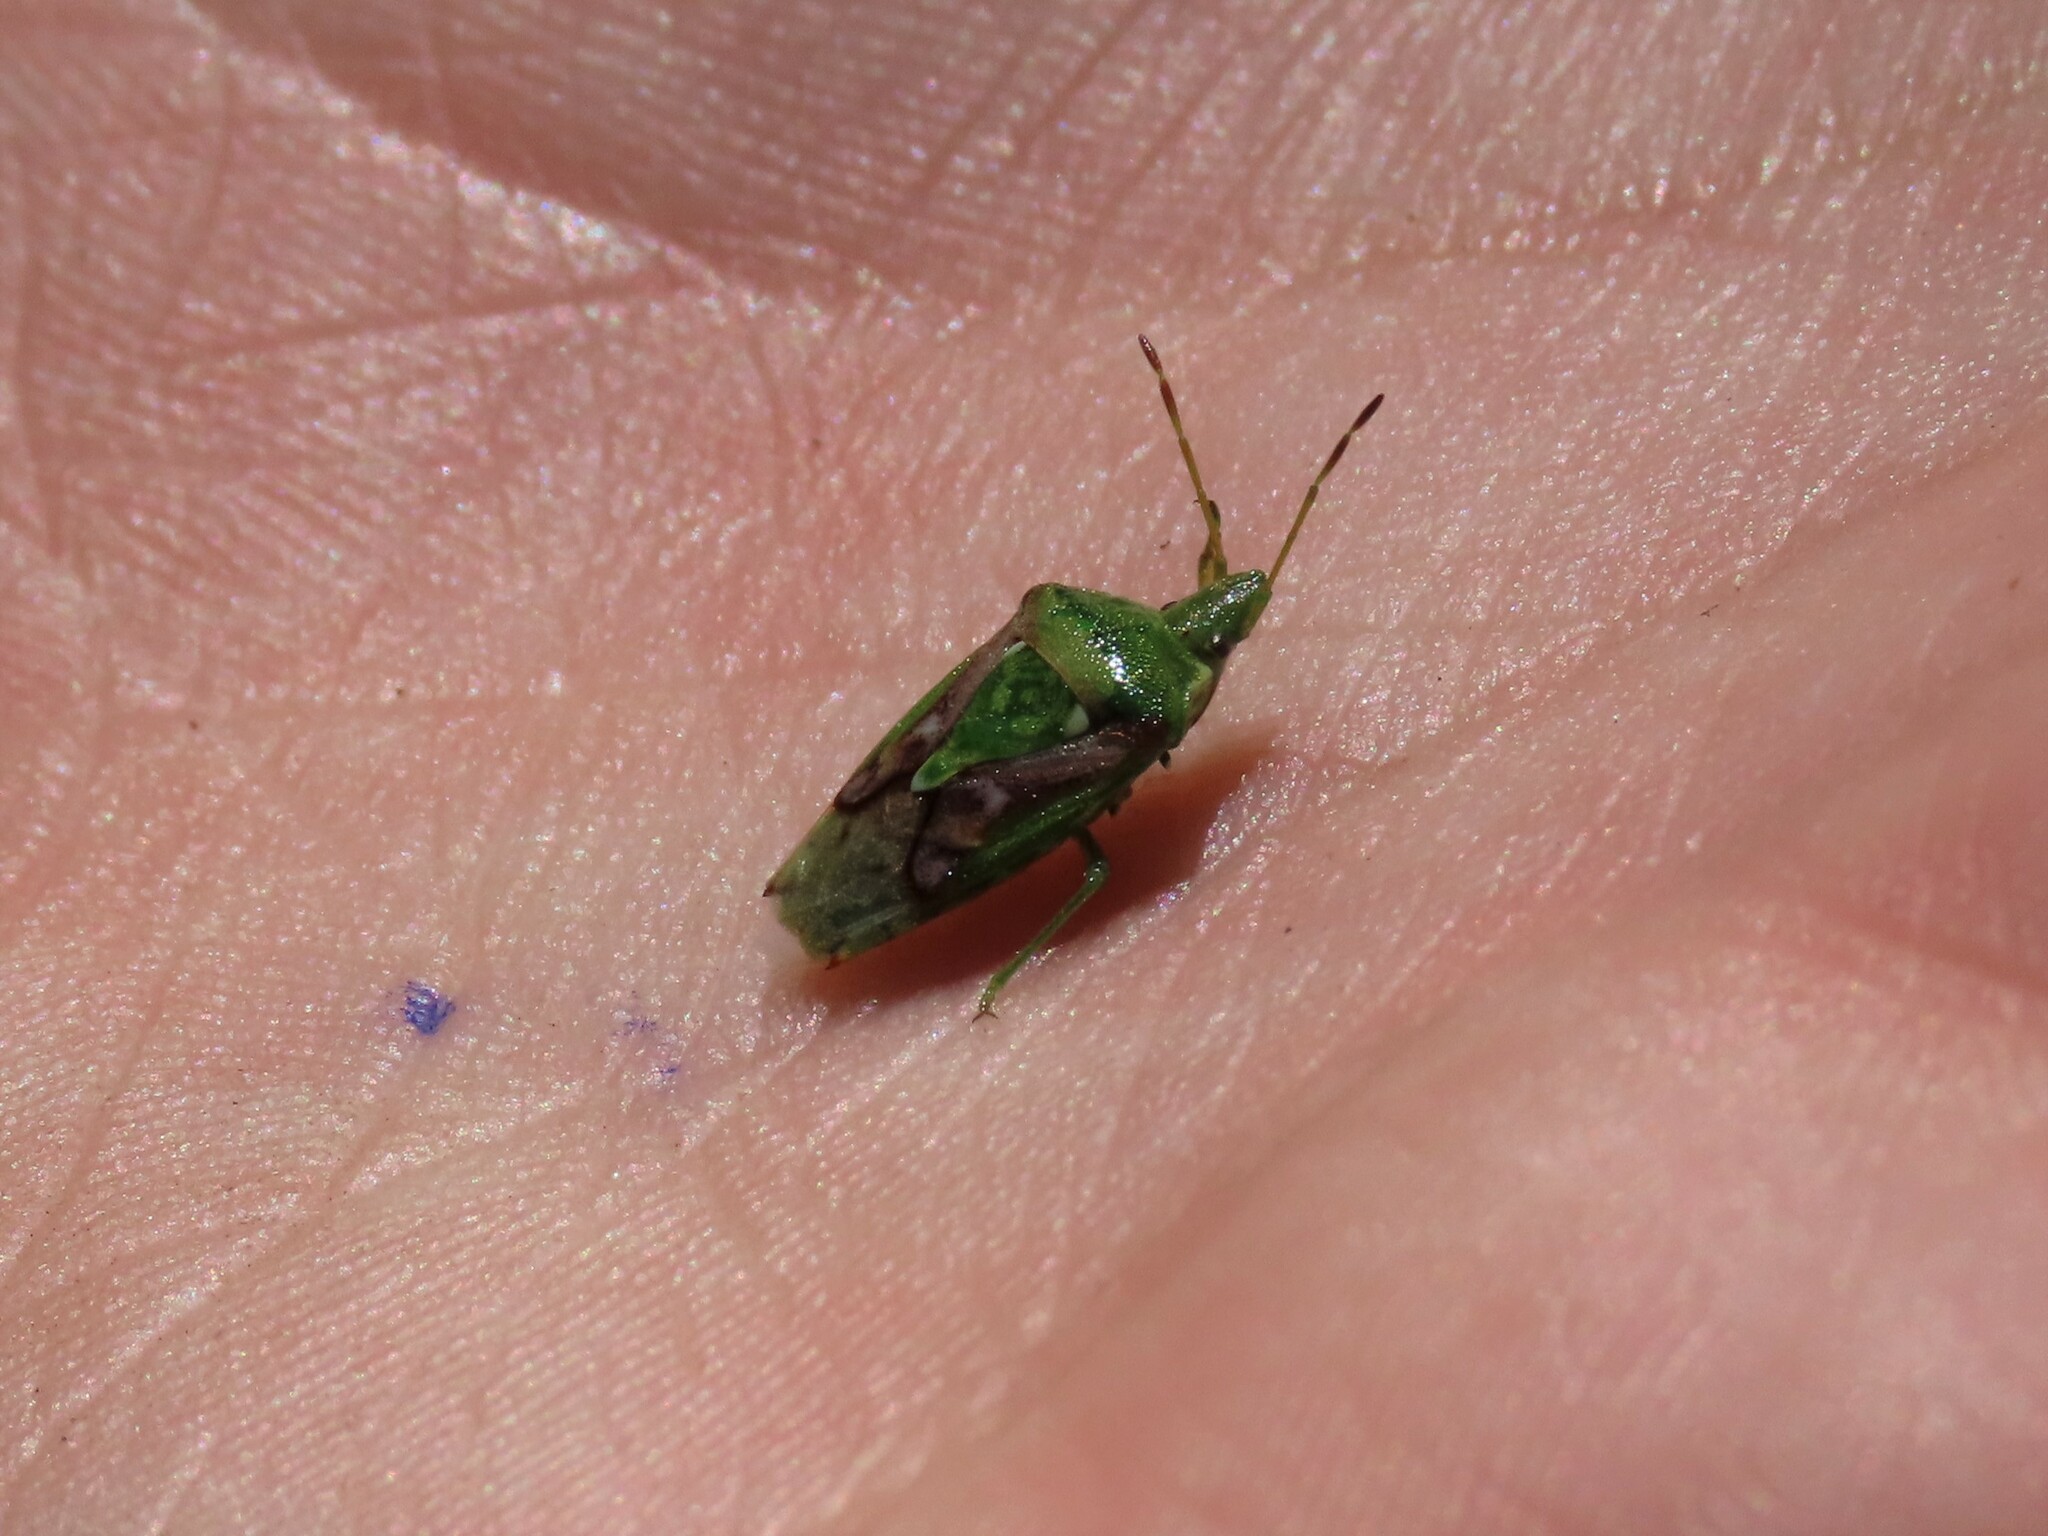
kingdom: Animalia
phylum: Arthropoda
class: Insecta
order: Hemiptera
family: Acanthosomatidae
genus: Cyphostethus
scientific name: Cyphostethus tristriatus
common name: Juniper shieldbug
